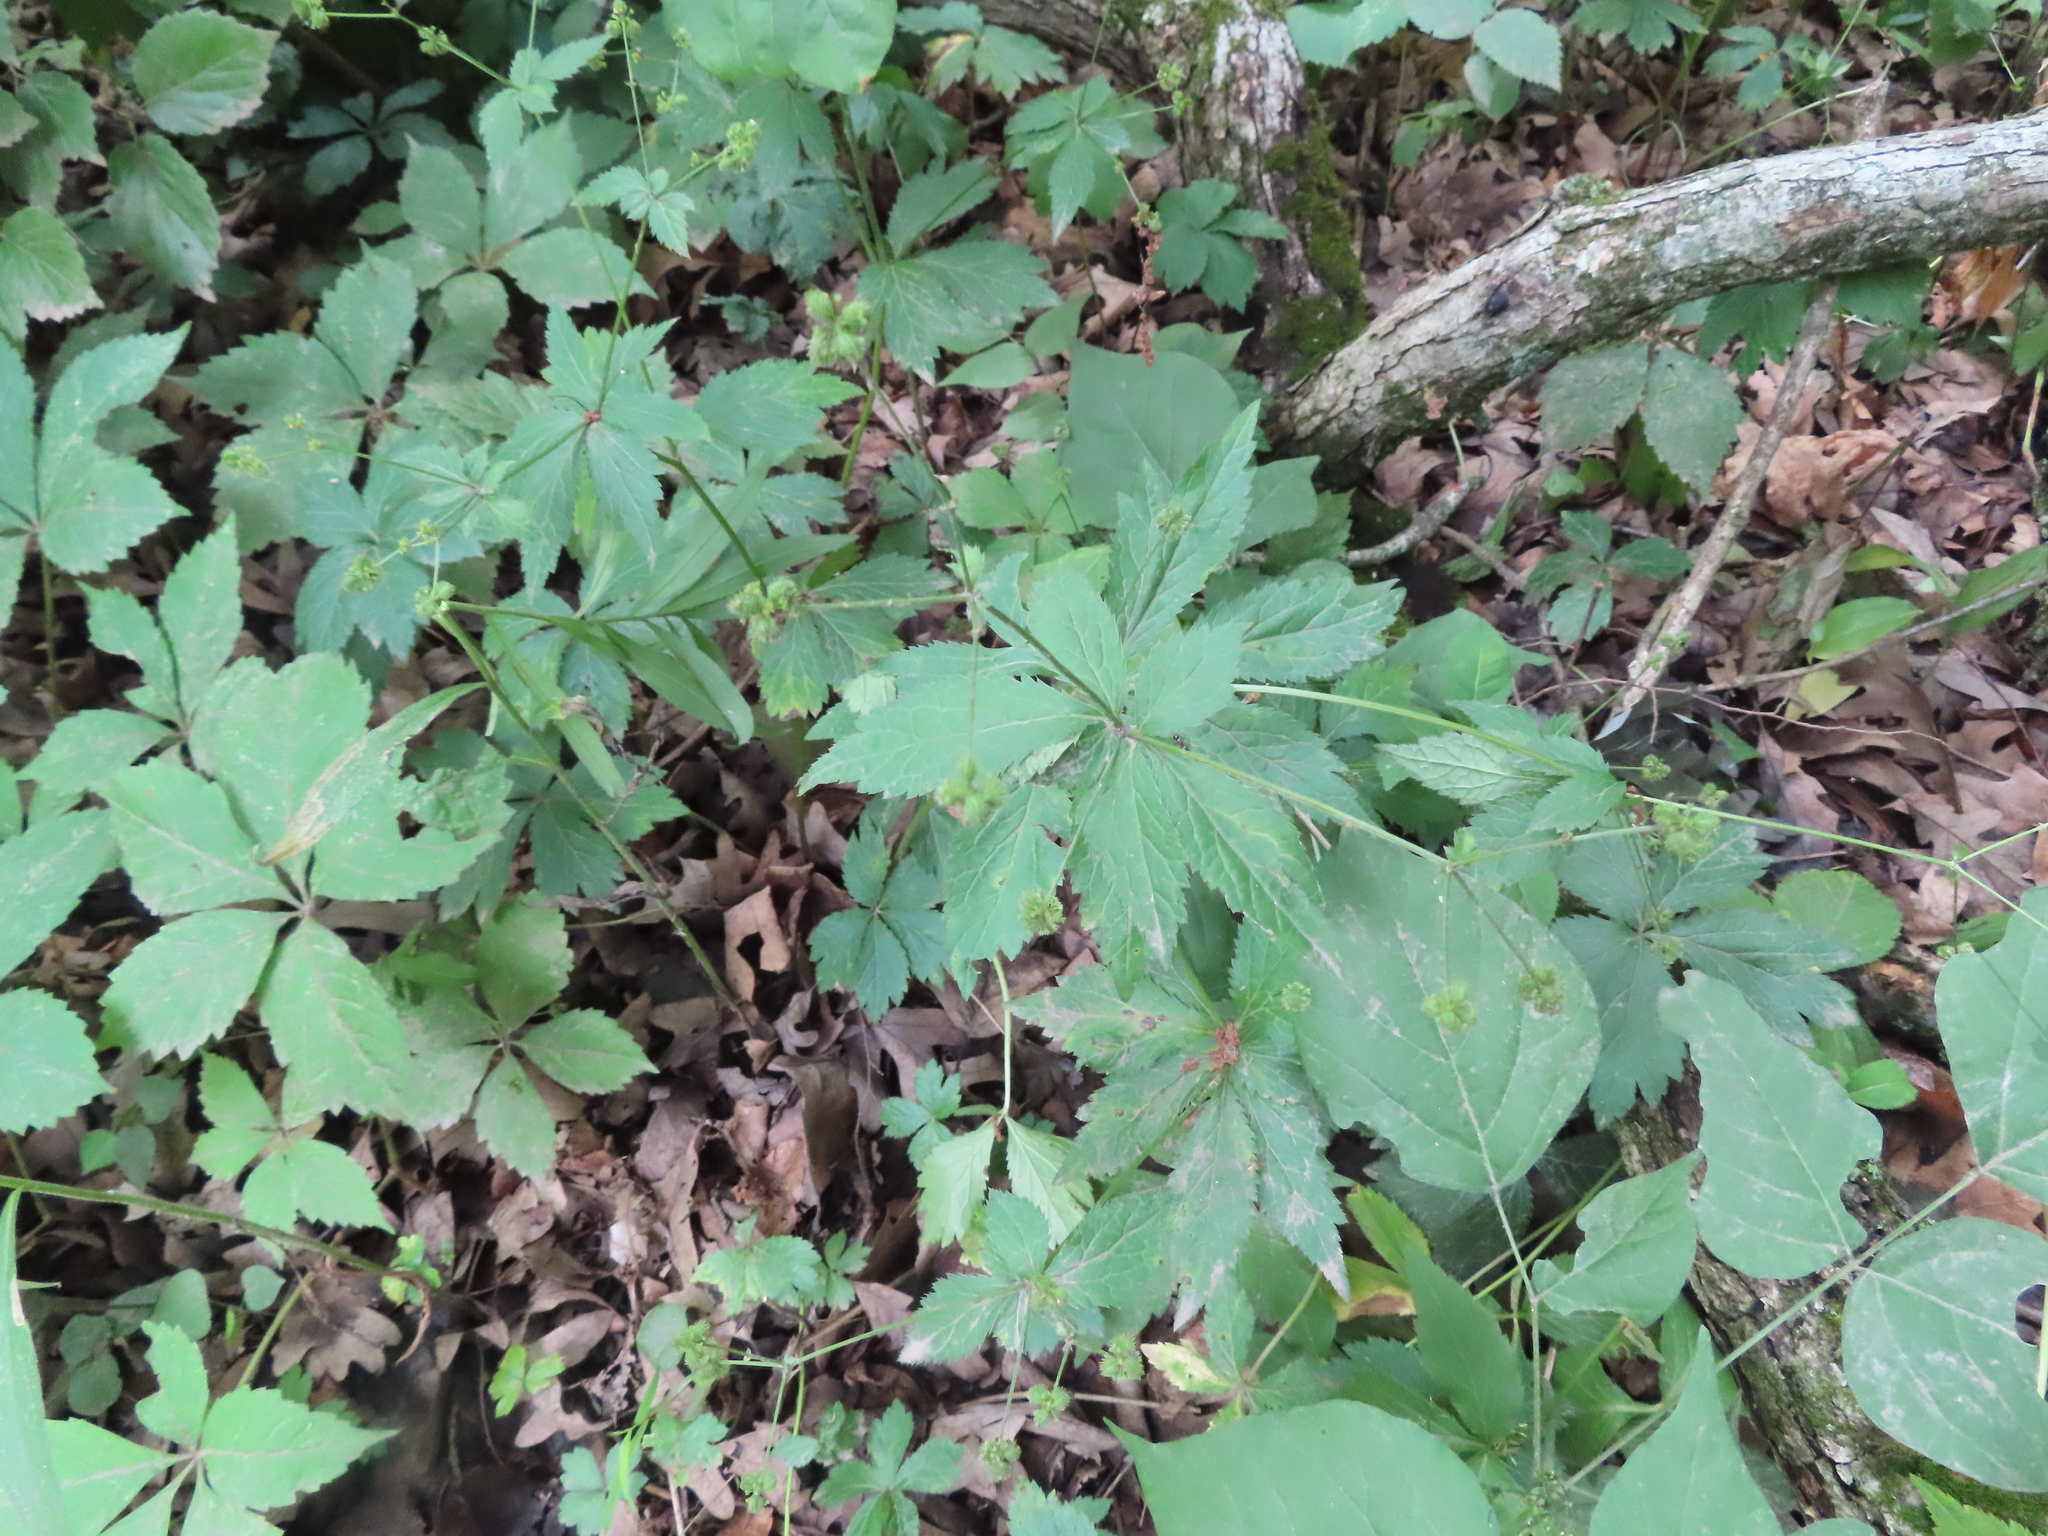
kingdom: Plantae
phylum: Tracheophyta
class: Magnoliopsida
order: Apiales
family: Apiaceae
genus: Sanicula
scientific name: Sanicula odorata
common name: Cluster sanicle
